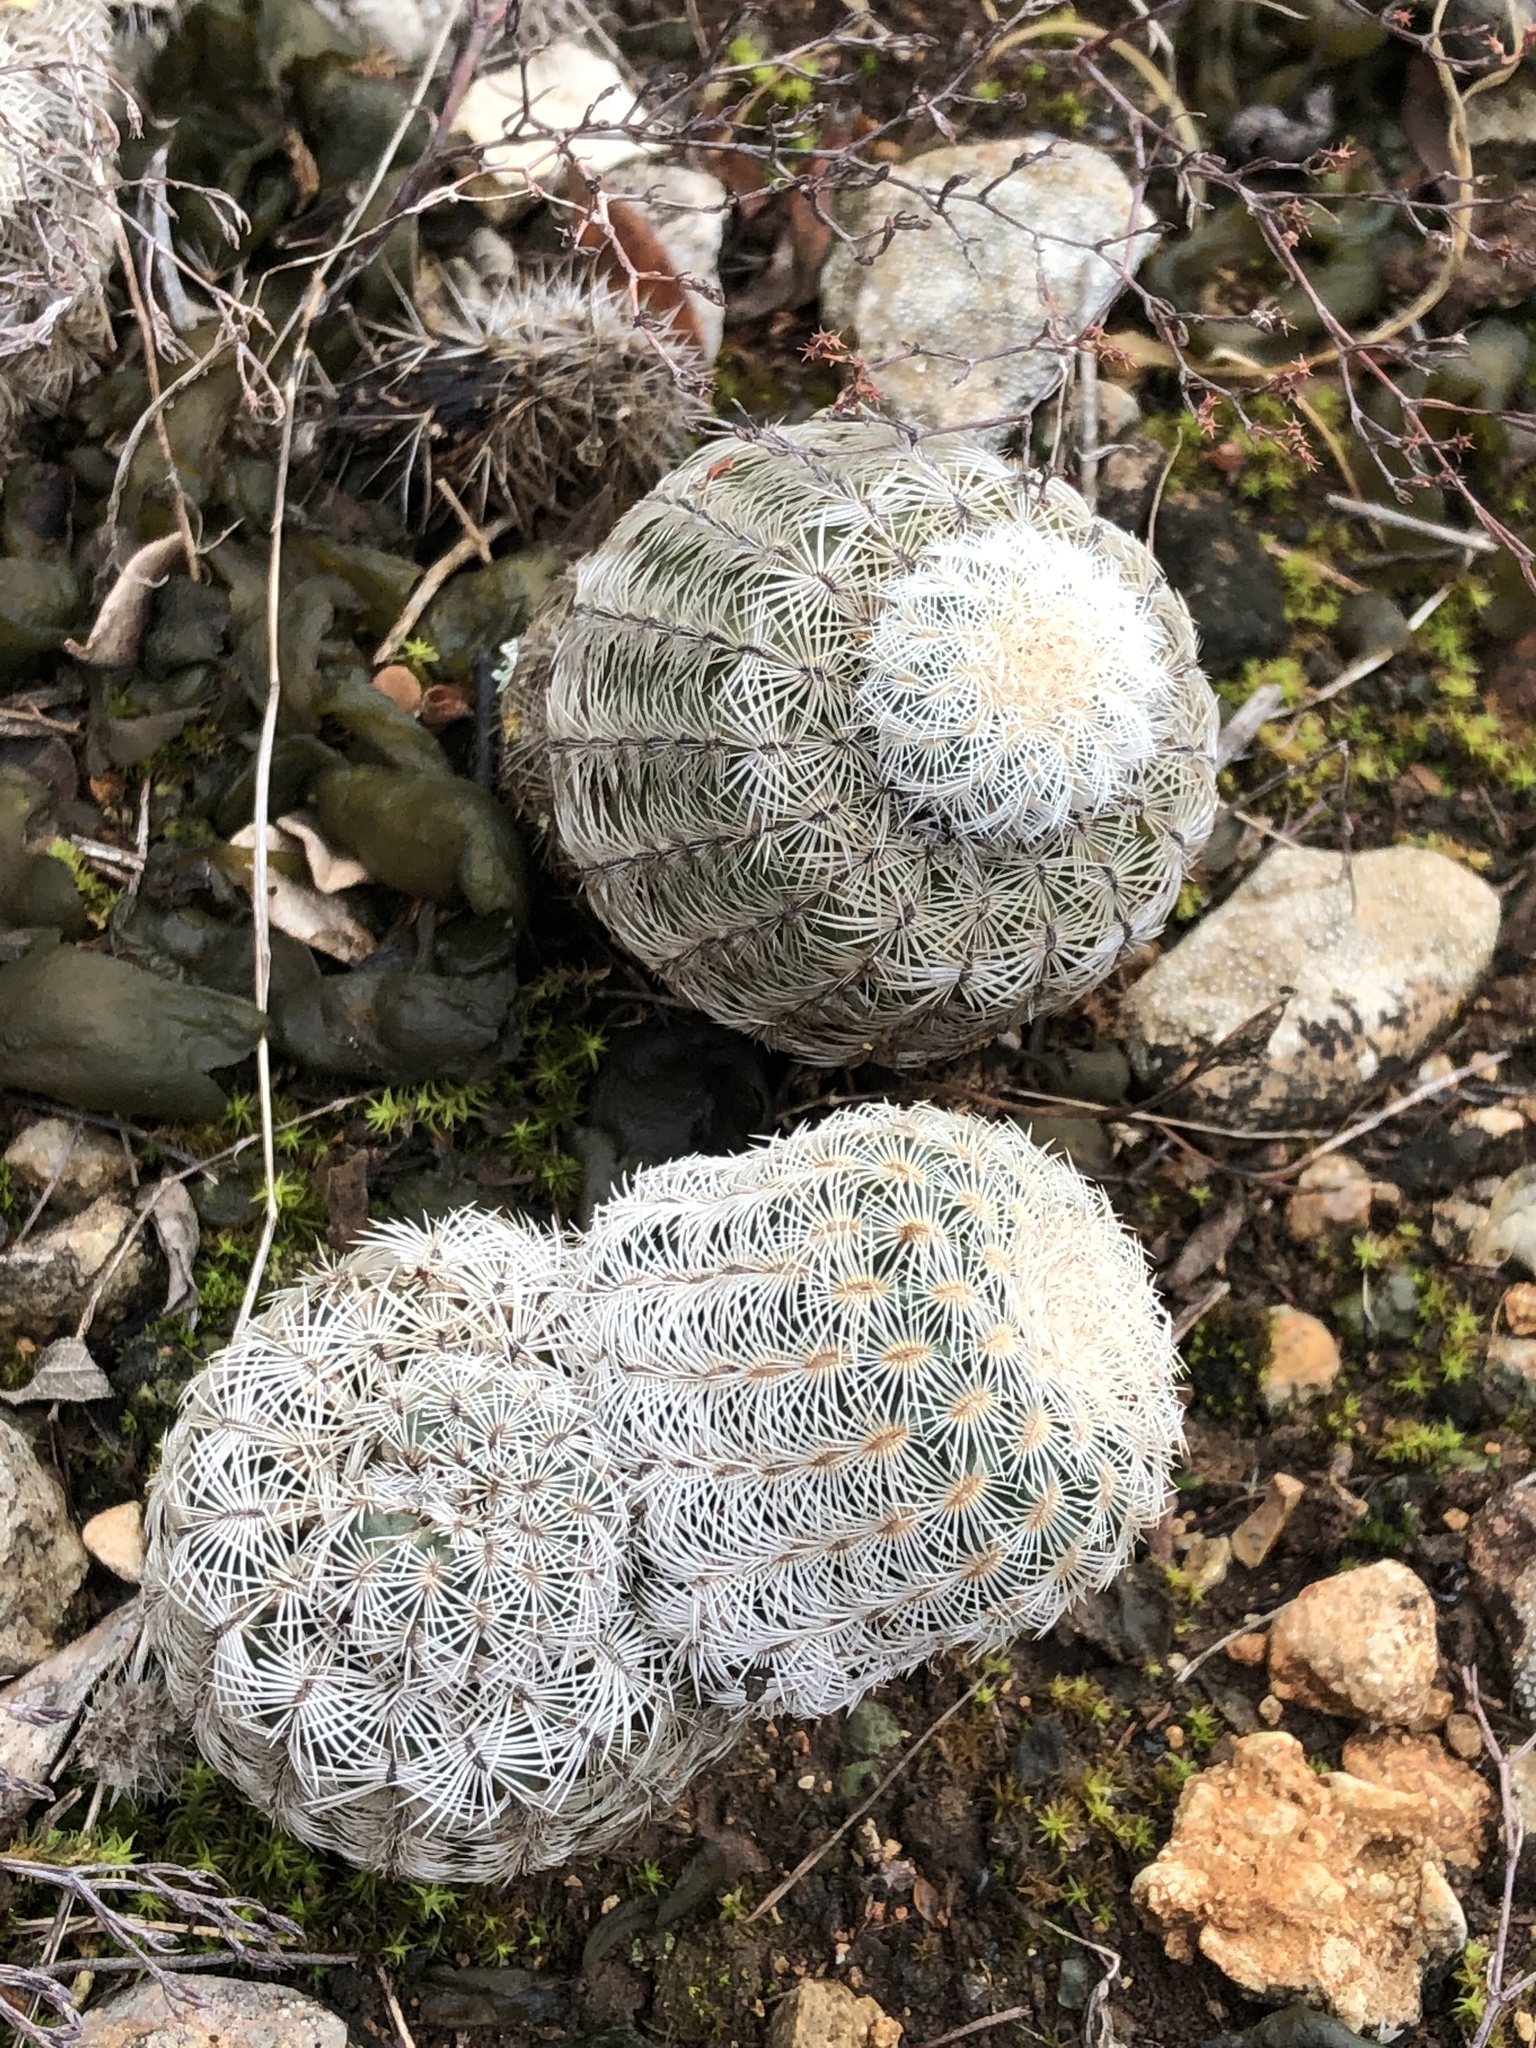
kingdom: Plantae
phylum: Tracheophyta
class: Magnoliopsida
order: Caryophyllales
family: Cactaceae
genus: Echinocereus
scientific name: Echinocereus reichenbachii
